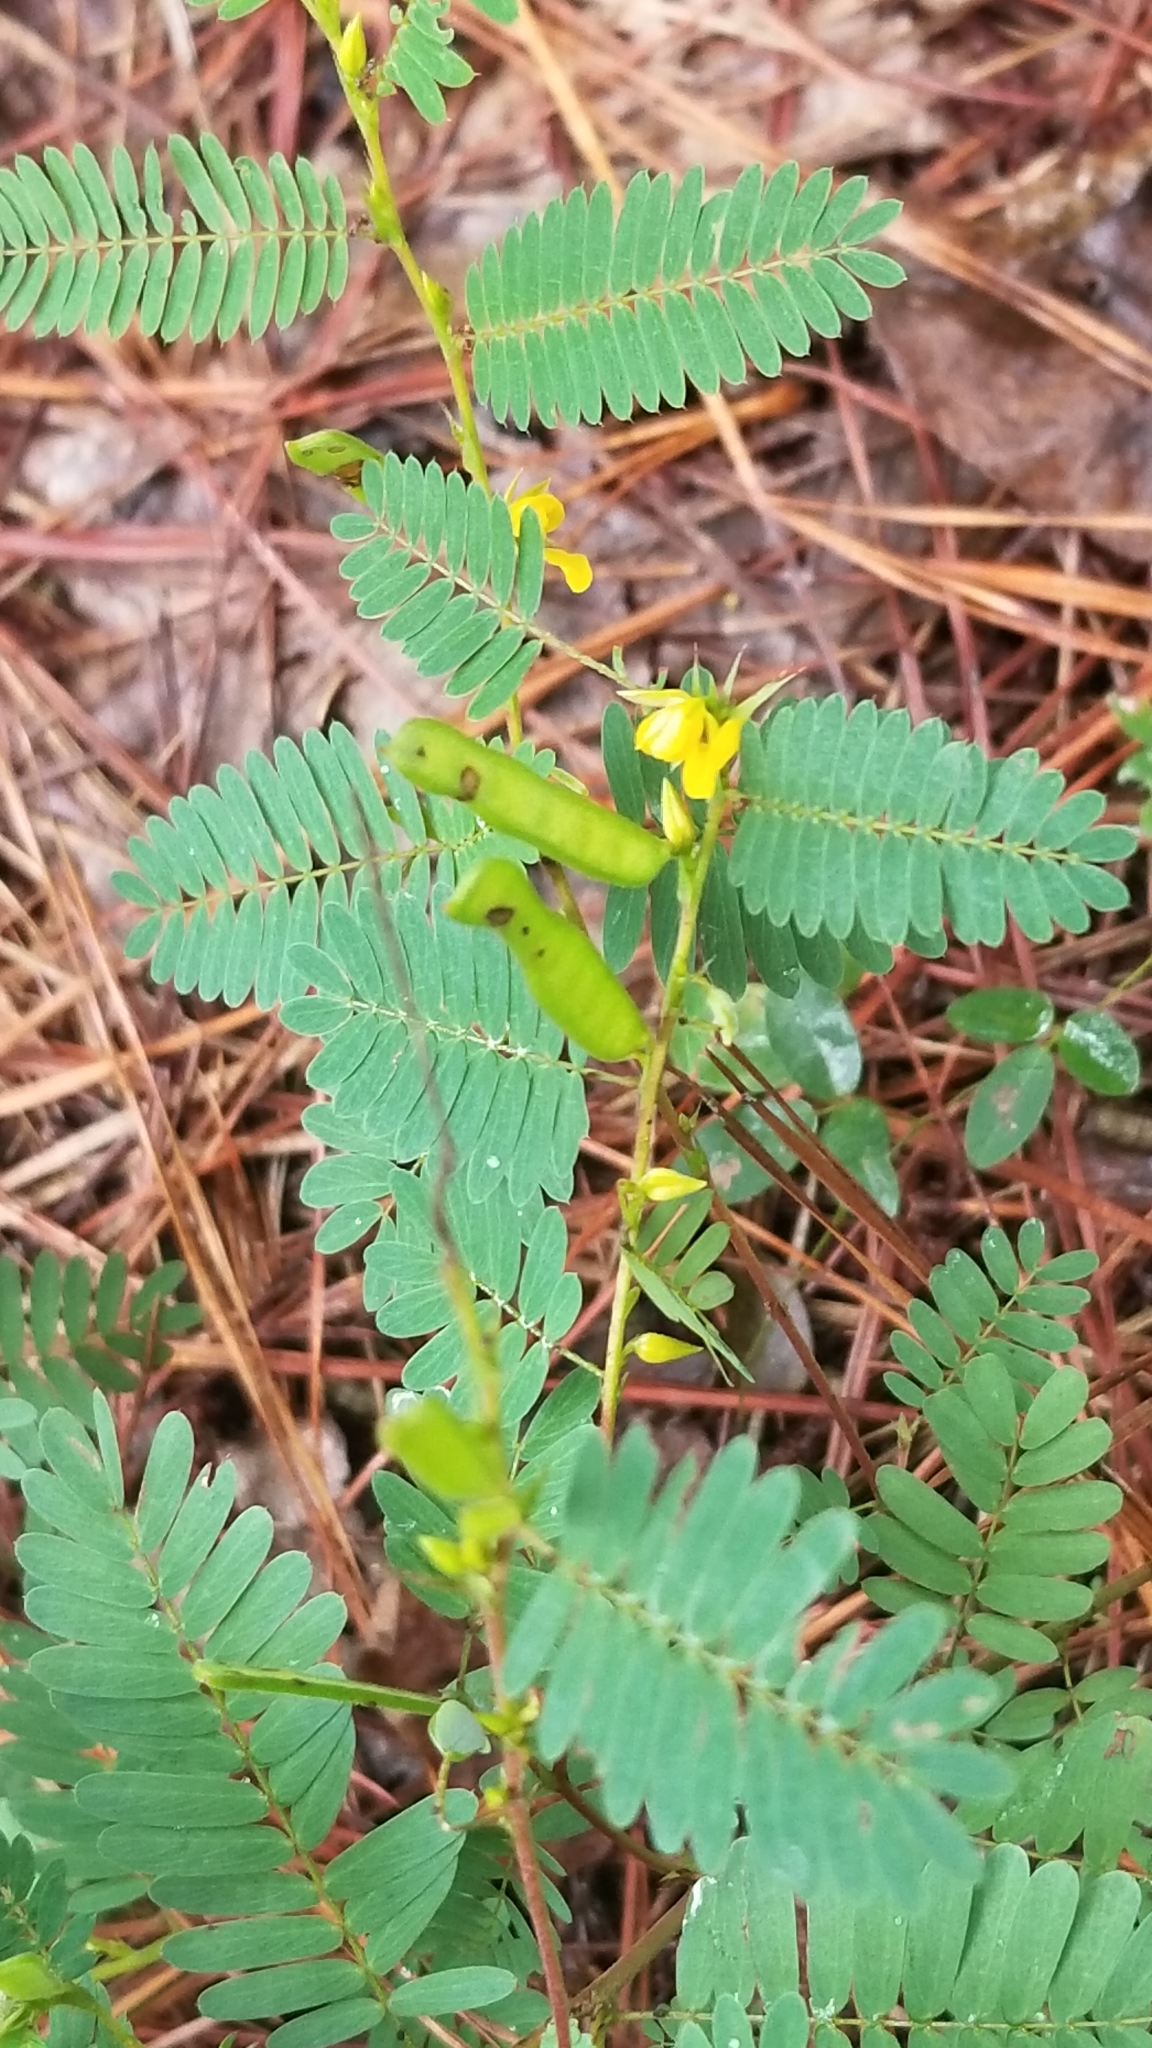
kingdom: Plantae
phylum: Tracheophyta
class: Magnoliopsida
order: Fabales
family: Fabaceae
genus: Chamaecrista
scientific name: Chamaecrista nictitans
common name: Sensitive cassia
